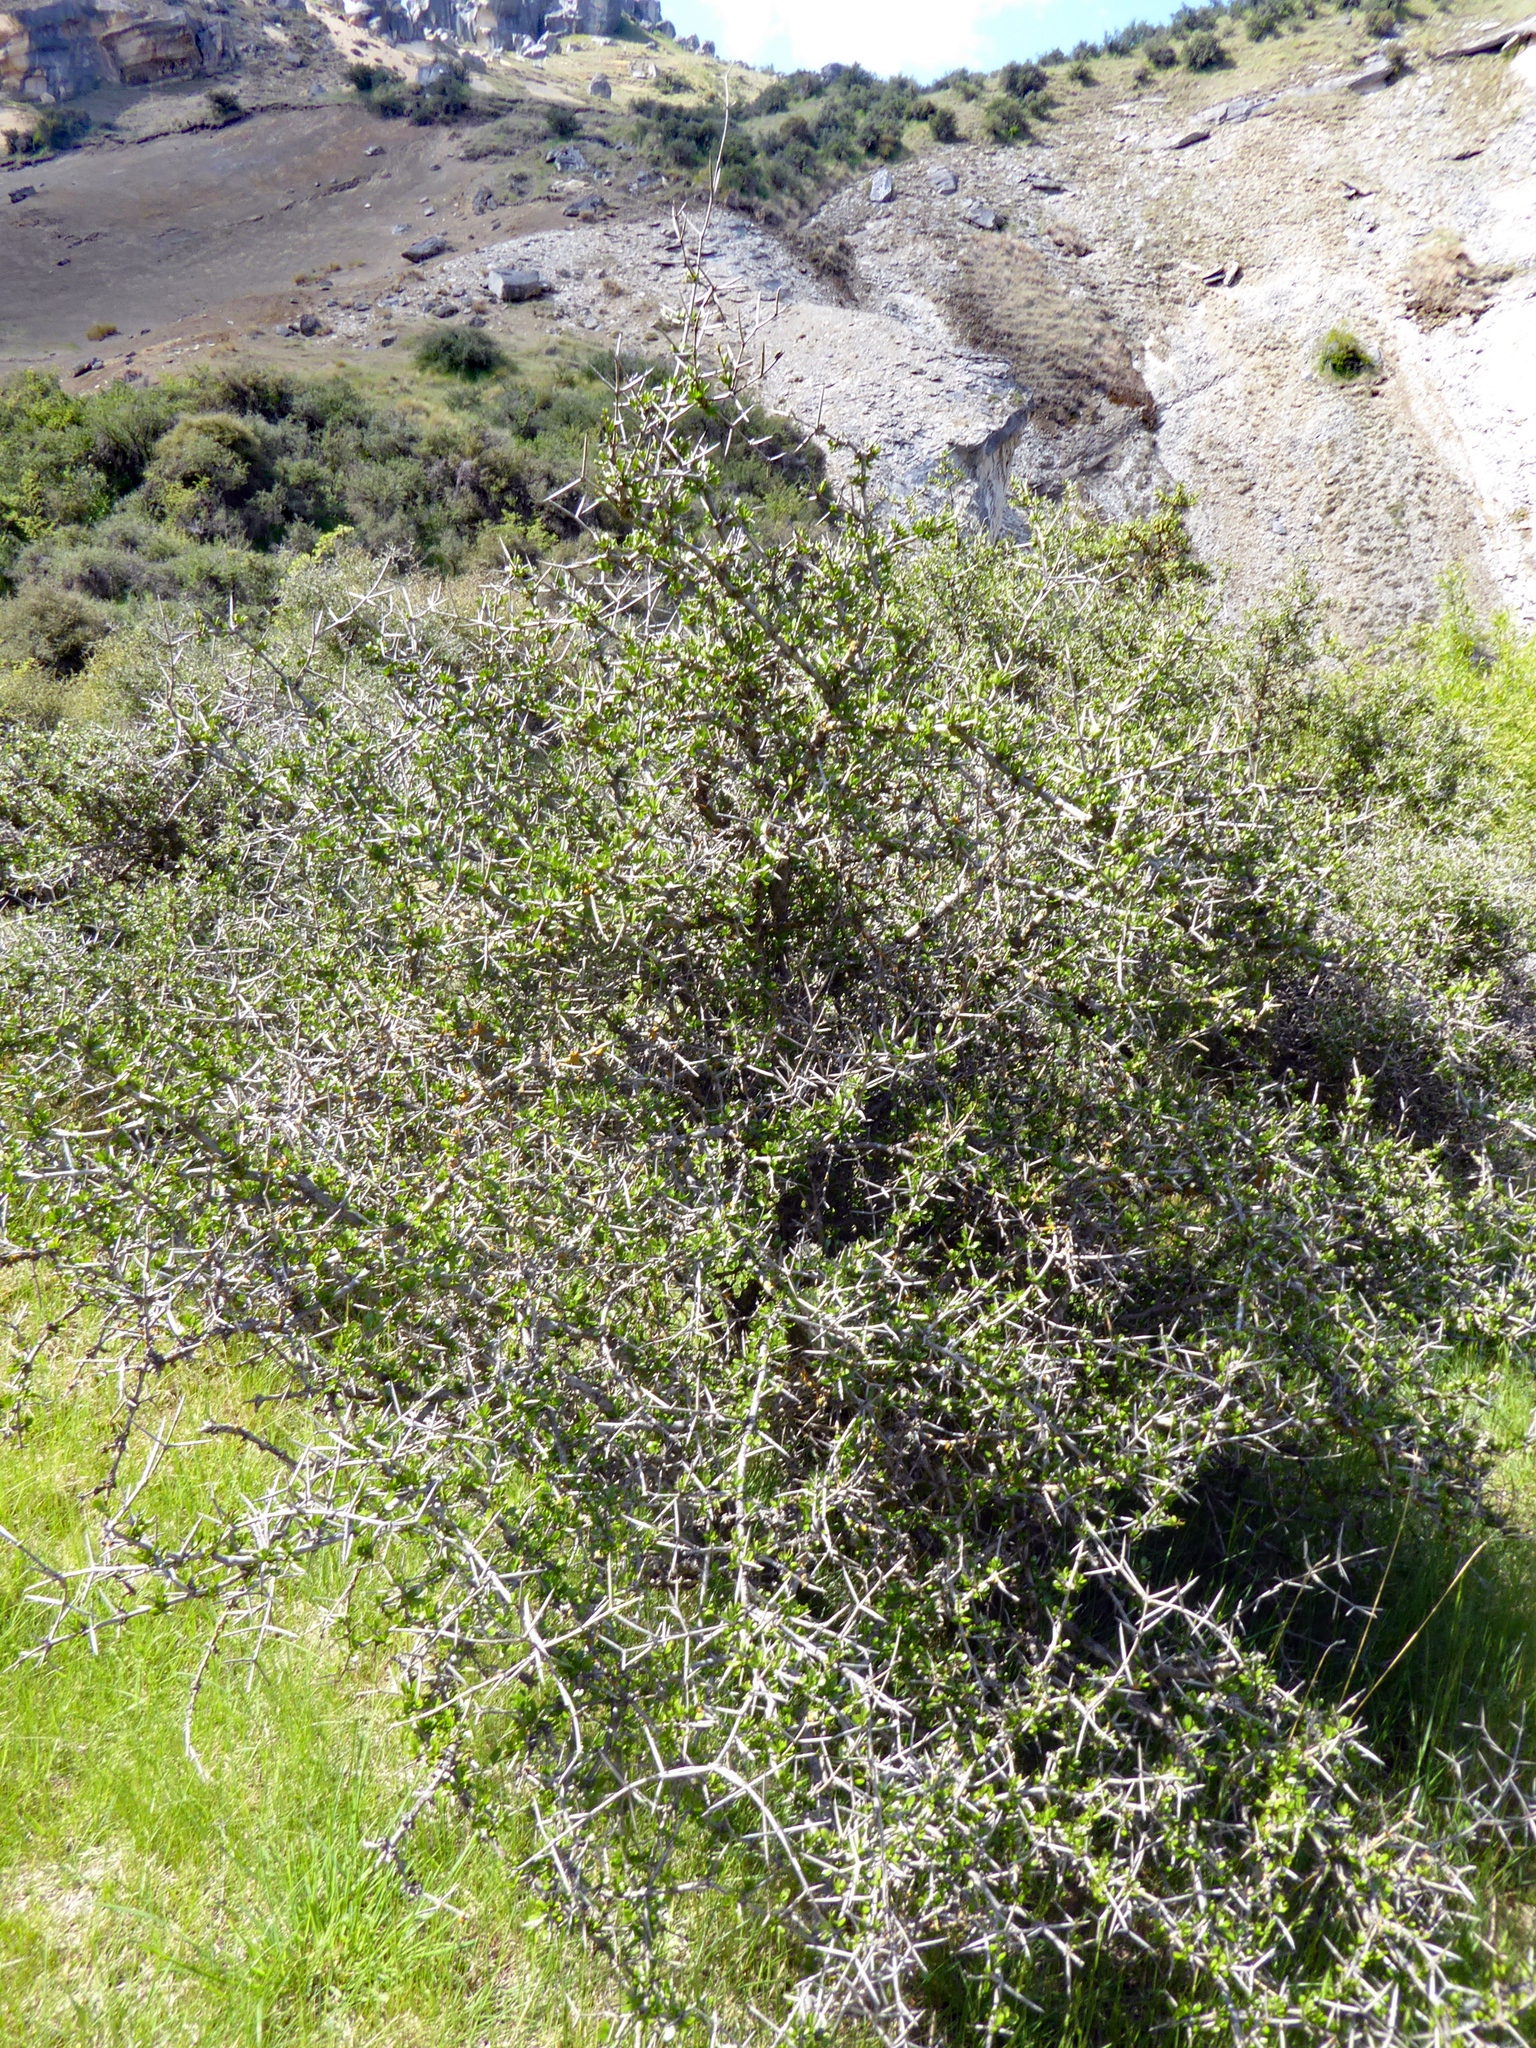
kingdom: Plantae
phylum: Tracheophyta
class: Magnoliopsida
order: Rosales
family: Rhamnaceae
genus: Discaria
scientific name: Discaria toumatou
